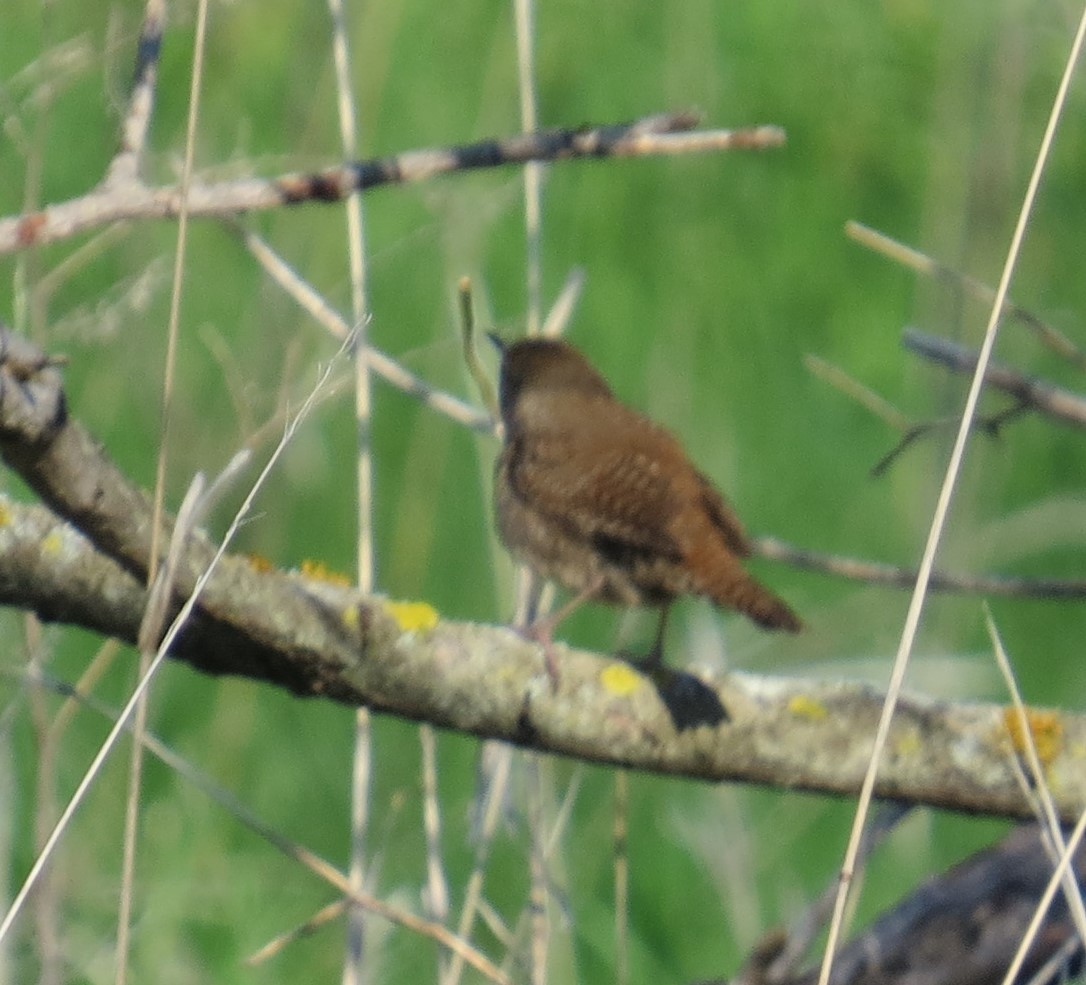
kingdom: Animalia
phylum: Chordata
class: Aves
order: Passeriformes
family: Troglodytidae
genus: Troglodytes
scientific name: Troglodytes aedon
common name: House wren
